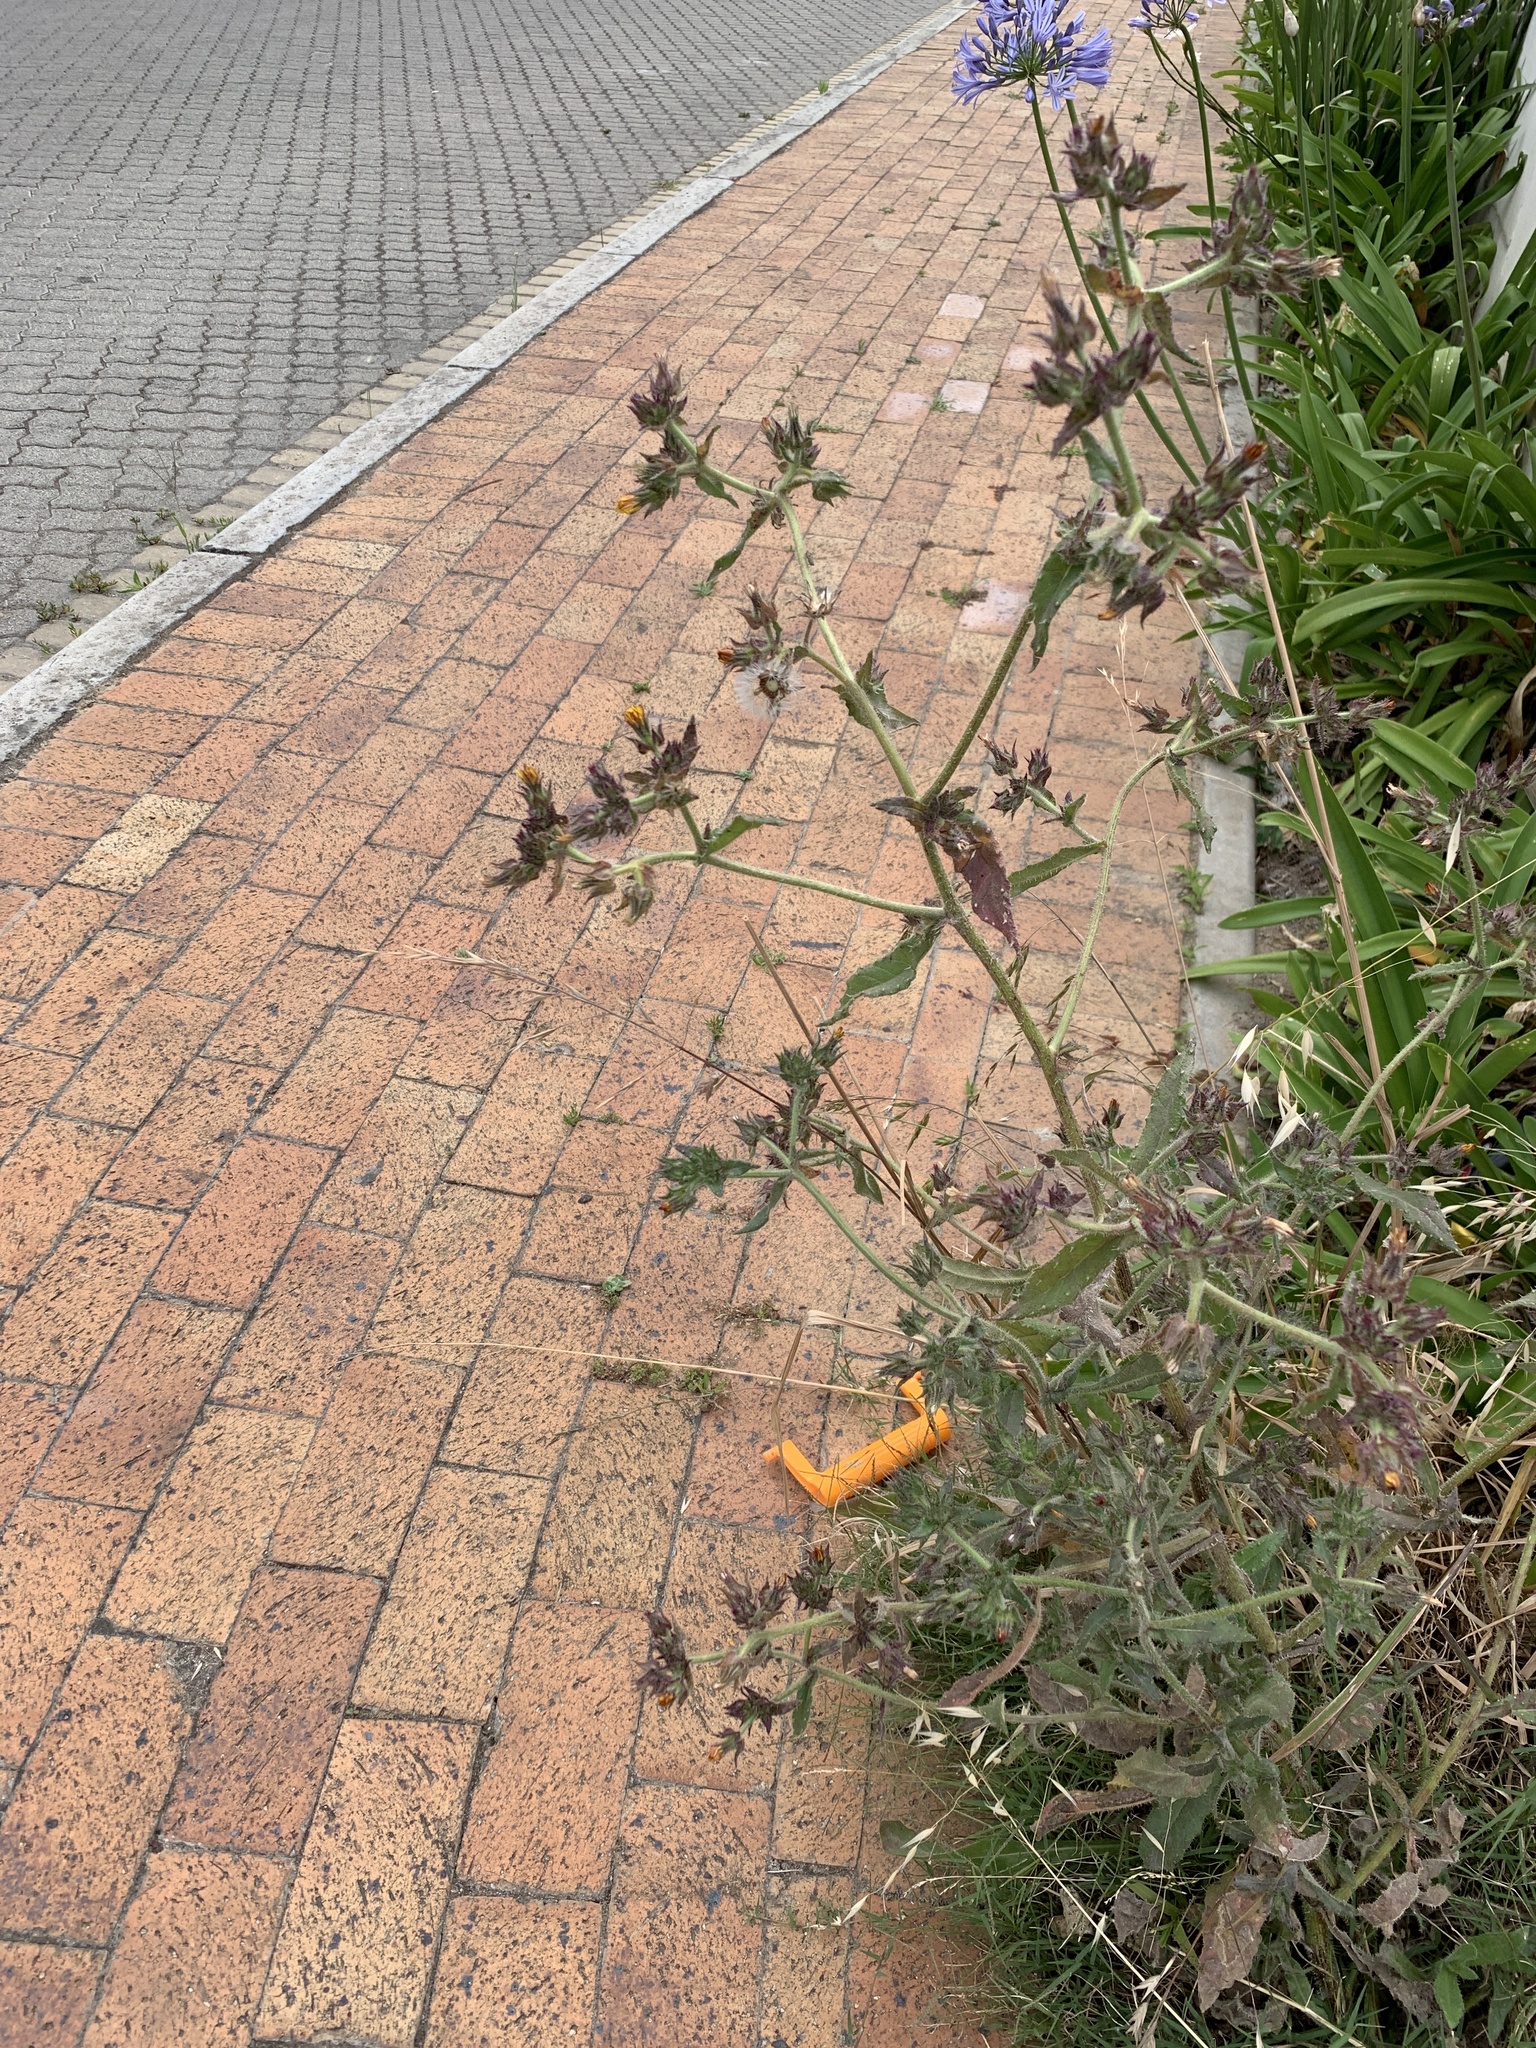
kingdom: Plantae
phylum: Tracheophyta
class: Magnoliopsida
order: Asterales
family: Asteraceae
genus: Helminthotheca
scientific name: Helminthotheca echioides
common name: Ox-tongue
